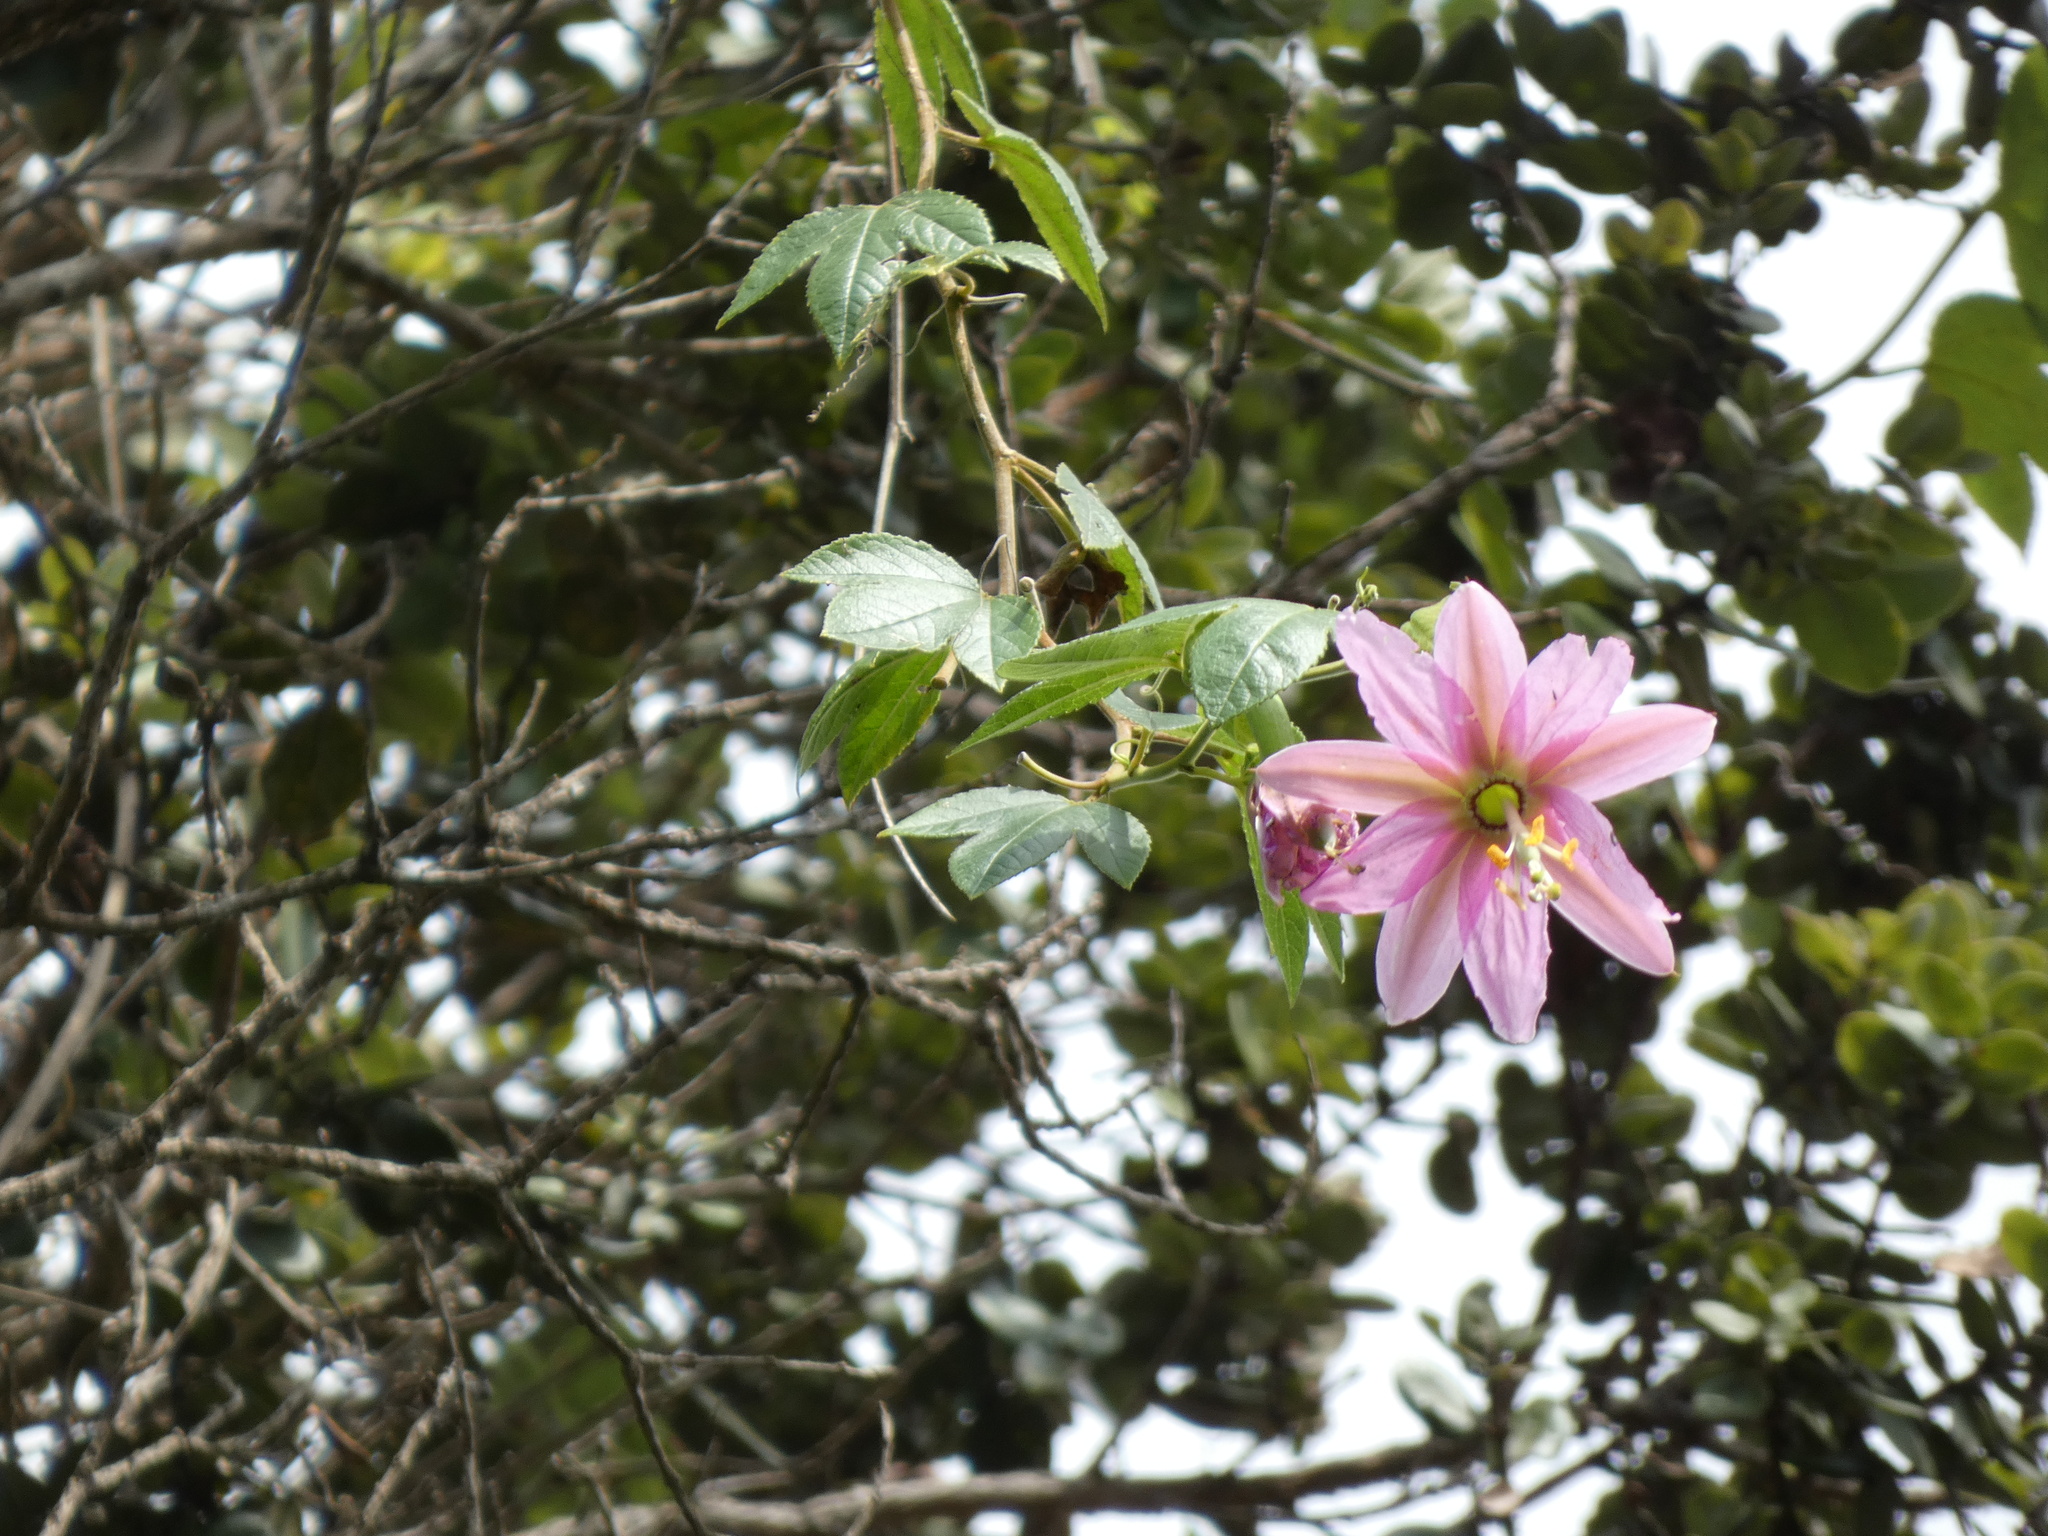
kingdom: Plantae
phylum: Tracheophyta
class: Magnoliopsida
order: Malpighiales
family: Passifloraceae
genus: Passiflora
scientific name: Passiflora tarminiana
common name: Banana poka
